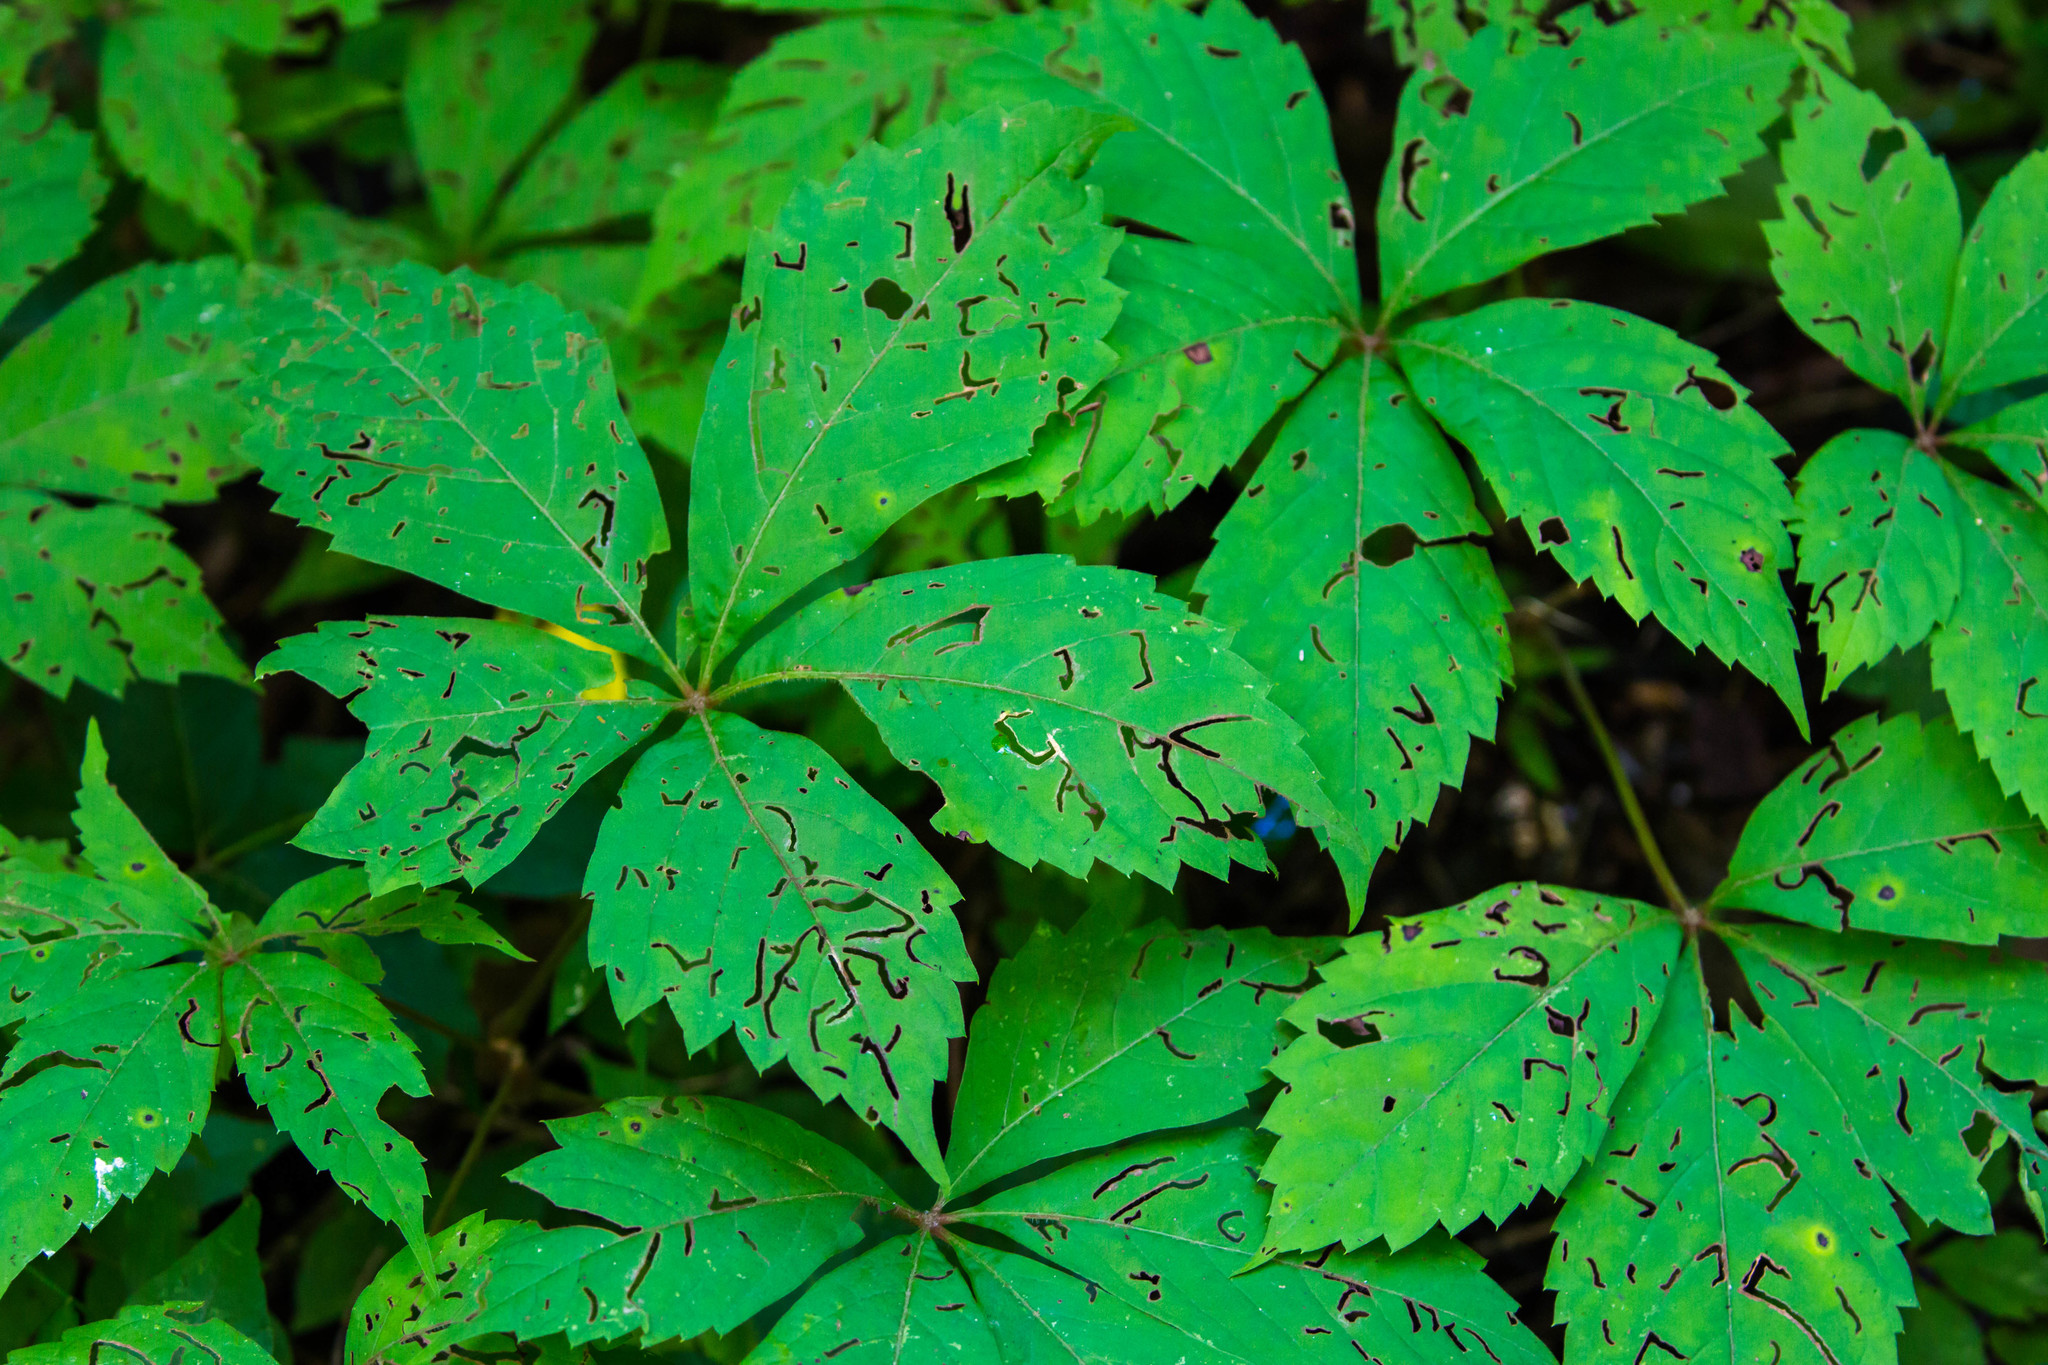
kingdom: Plantae
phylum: Tracheophyta
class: Magnoliopsida
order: Vitales
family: Vitaceae
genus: Parthenocissus
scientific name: Parthenocissus quinquefolia
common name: Virginia-creeper
